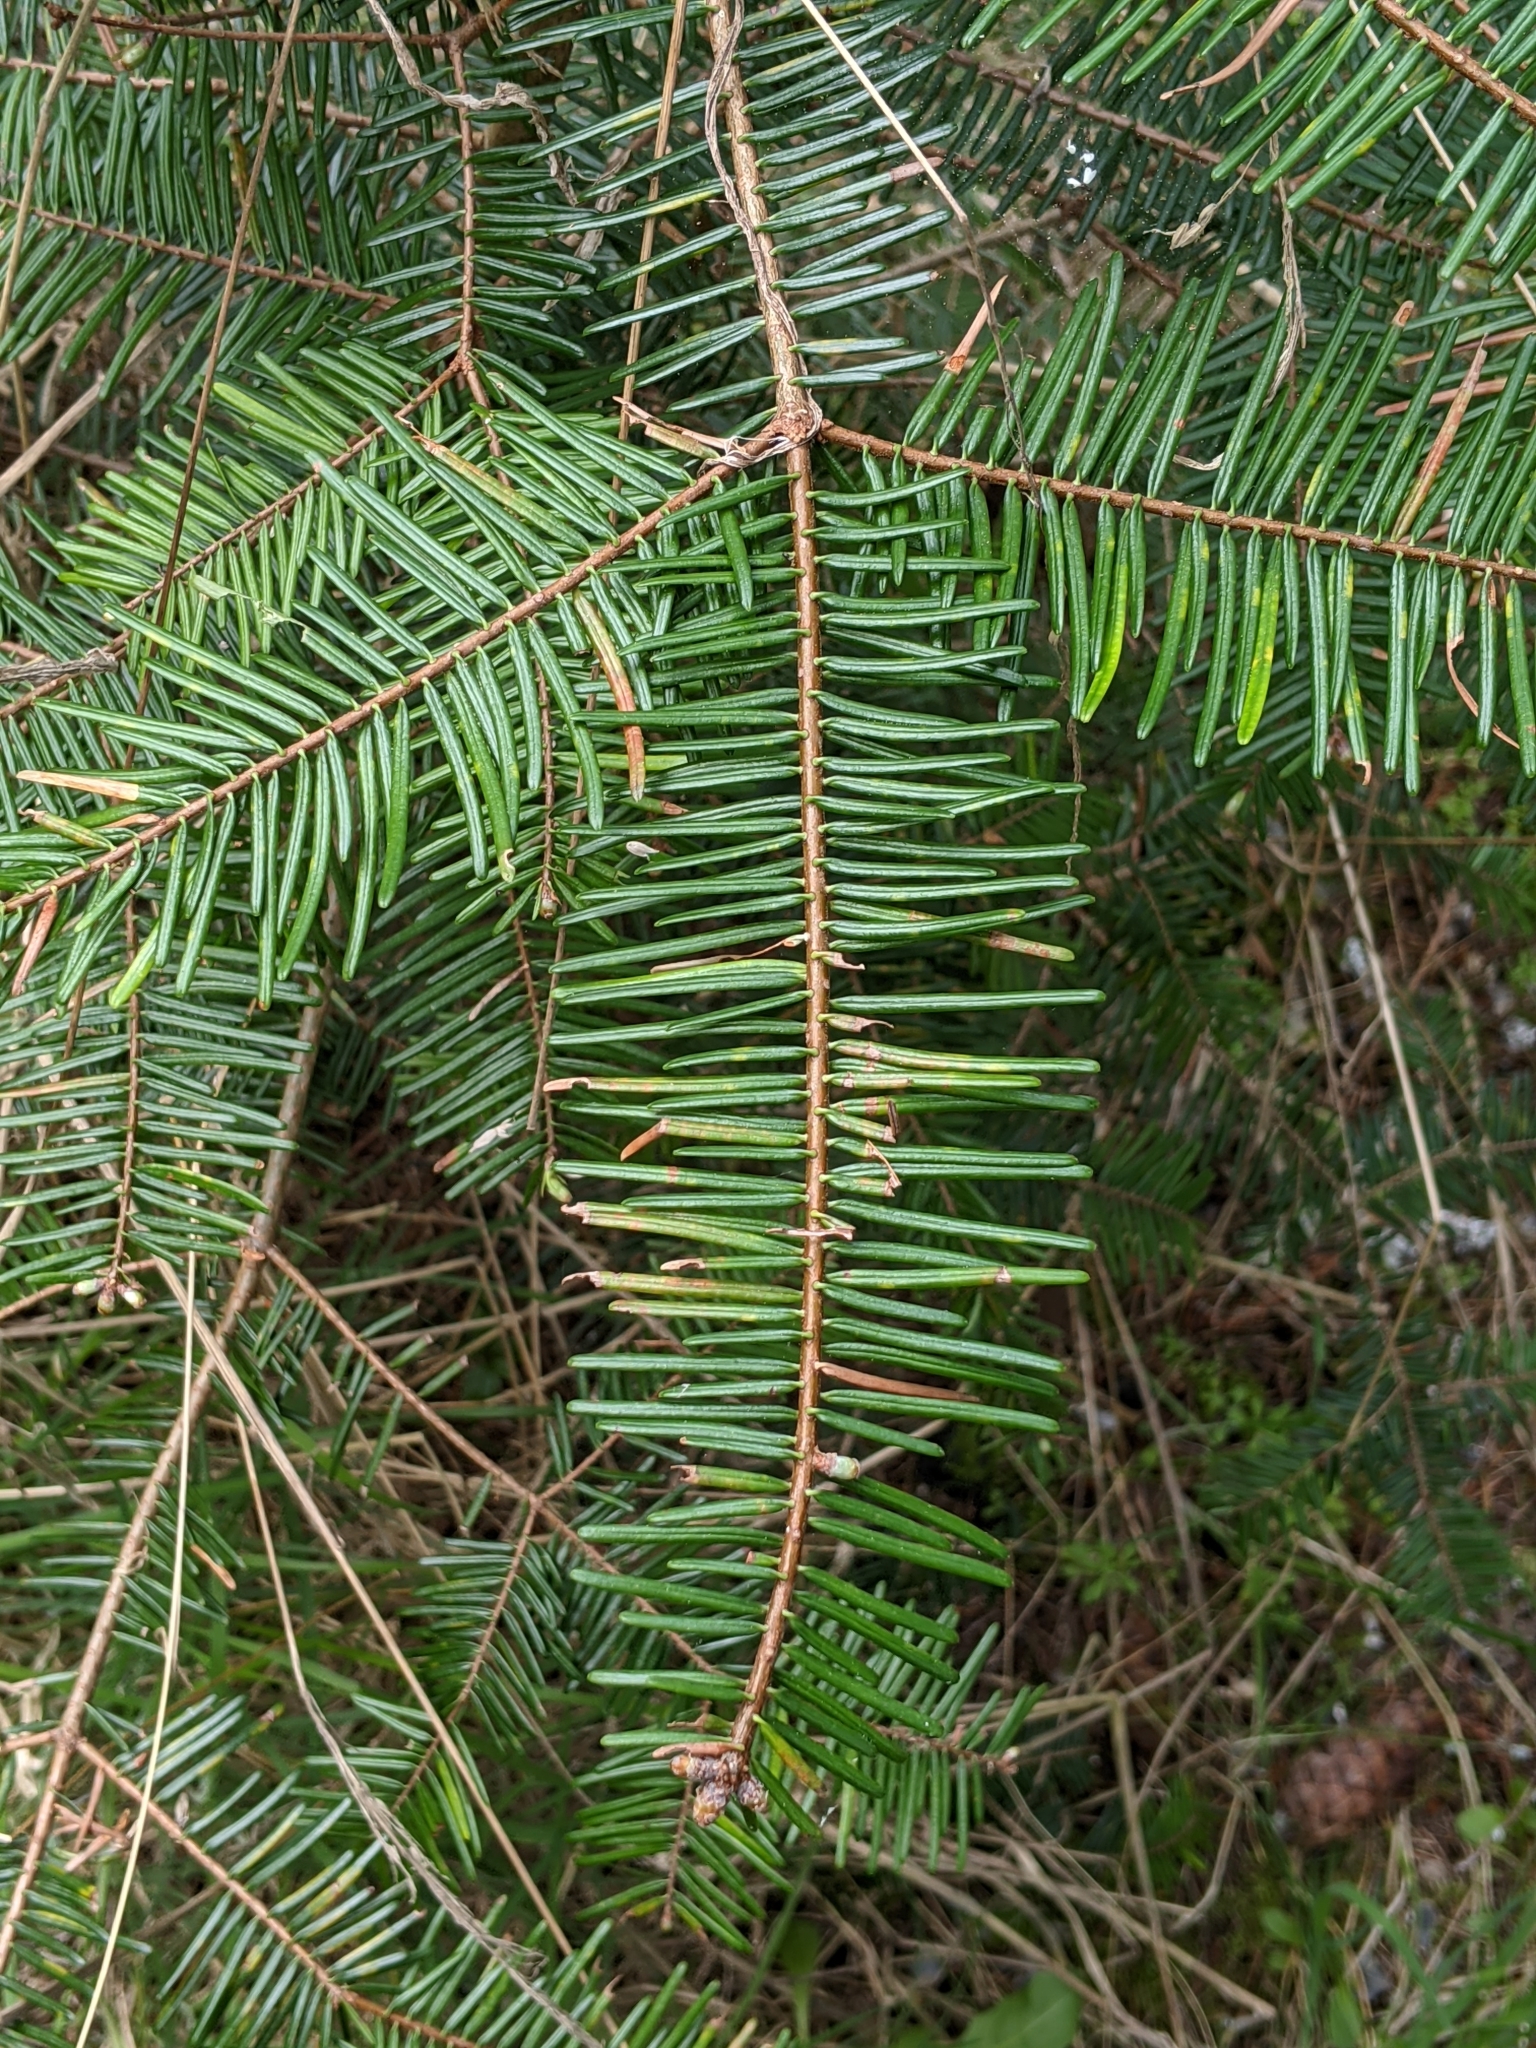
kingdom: Plantae
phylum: Tracheophyta
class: Pinopsida
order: Pinales
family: Pinaceae
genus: Abies
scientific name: Abies grandis
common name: Giant fir
